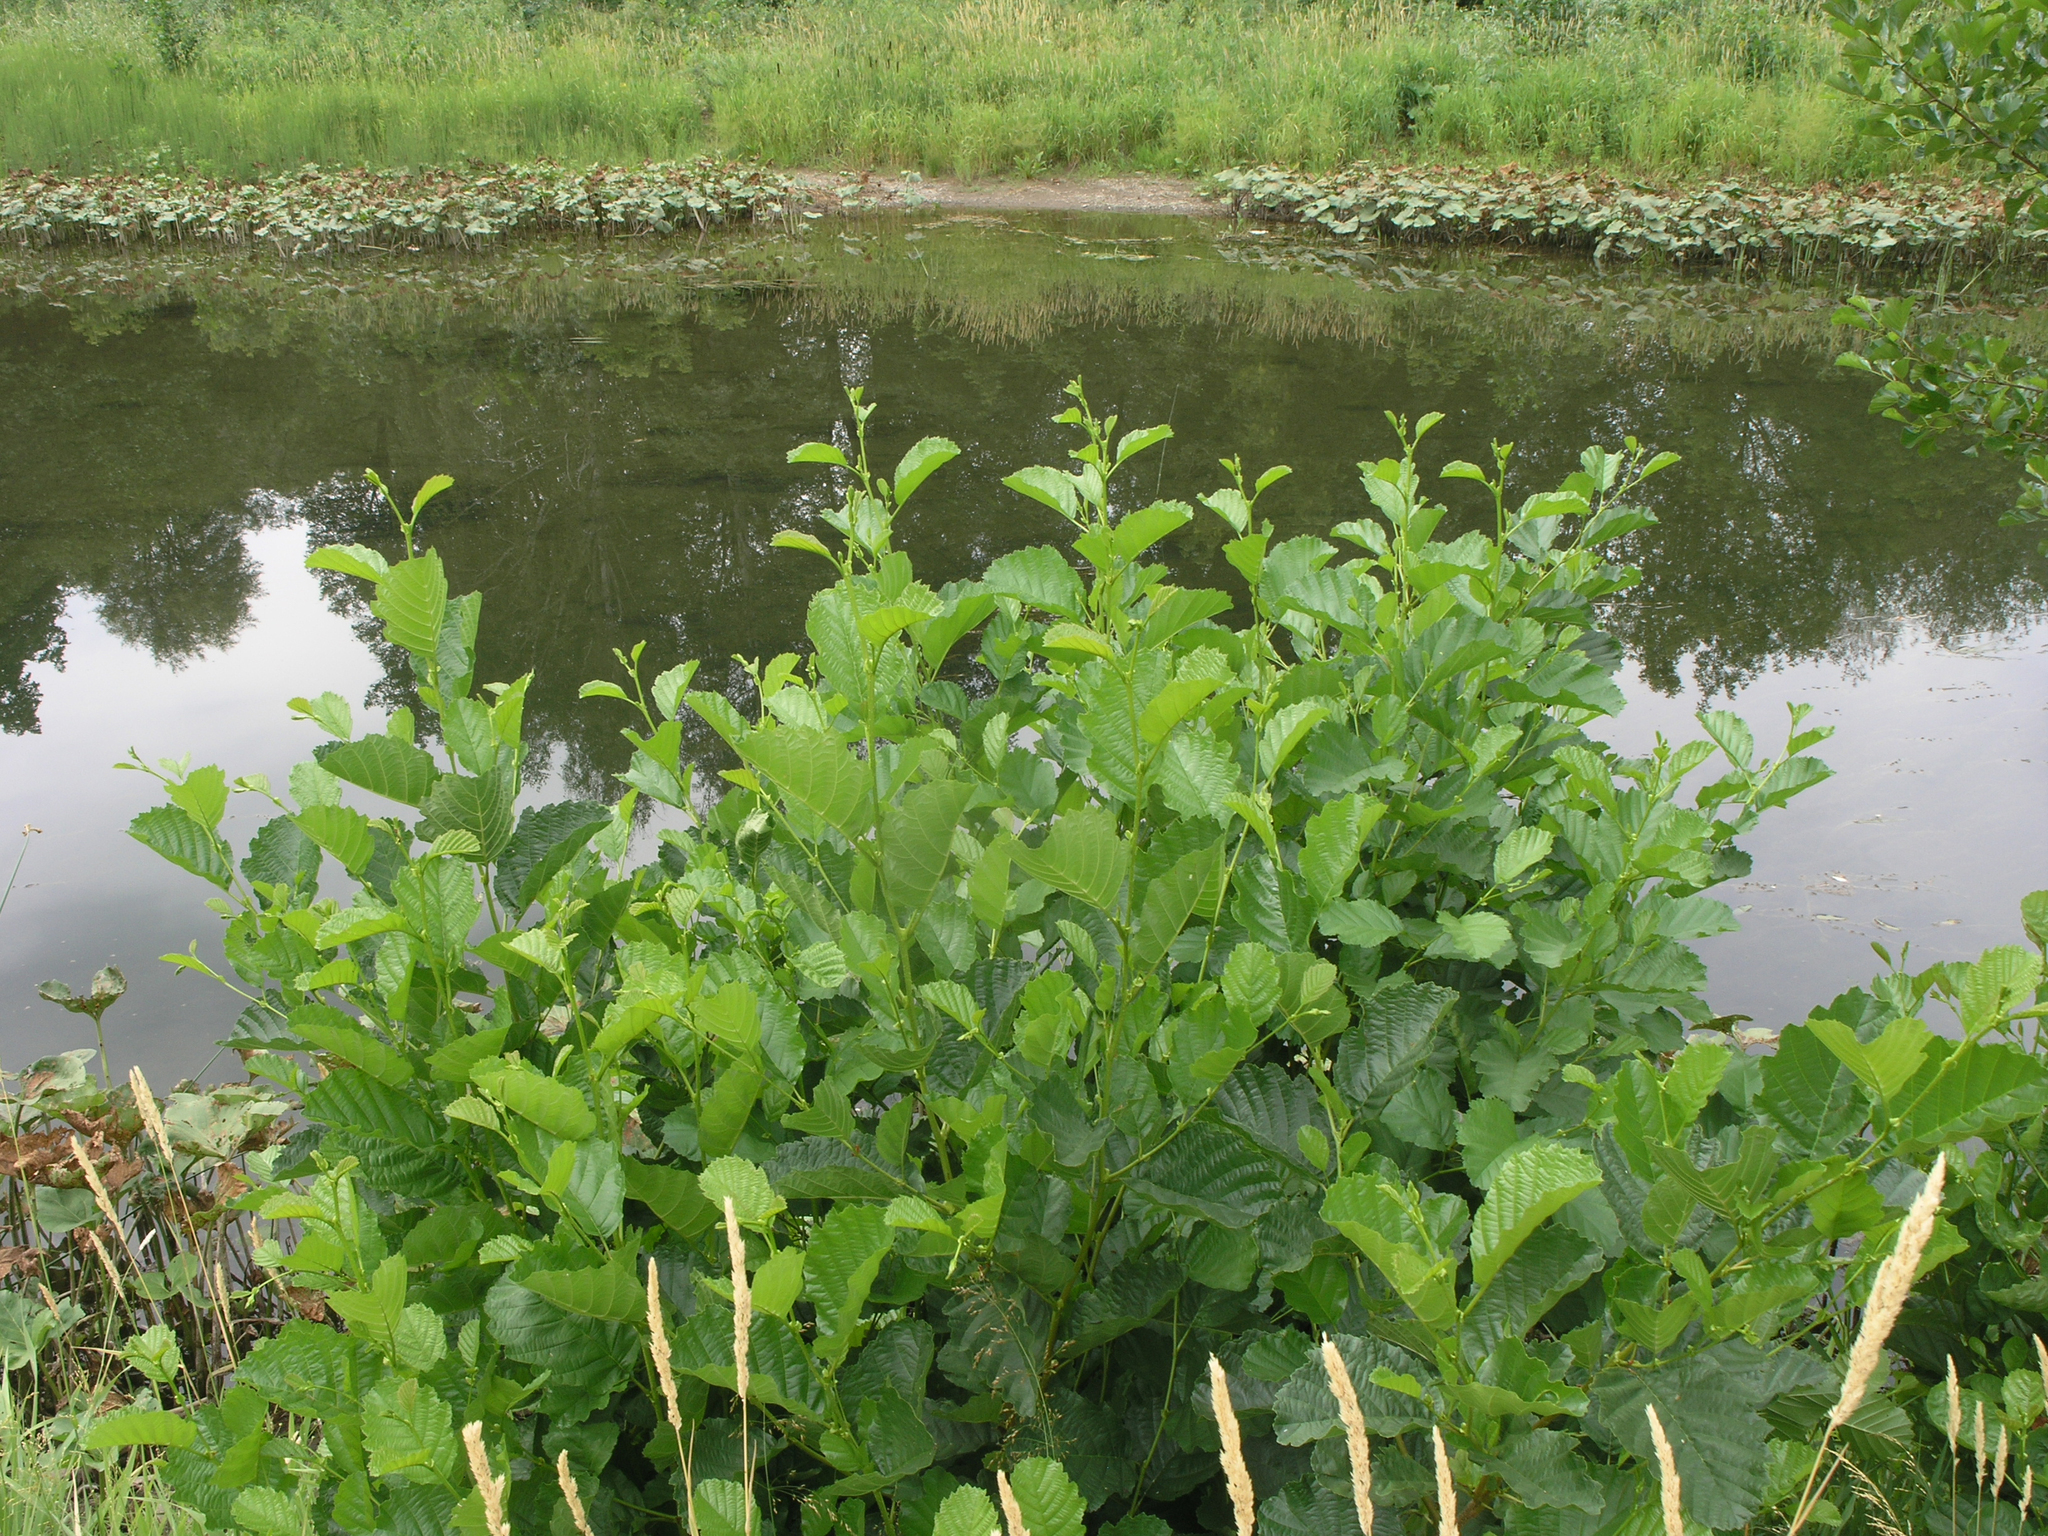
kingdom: Plantae
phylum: Tracheophyta
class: Magnoliopsida
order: Fagales
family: Betulaceae
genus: Alnus
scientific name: Alnus glutinosa
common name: Black alder
